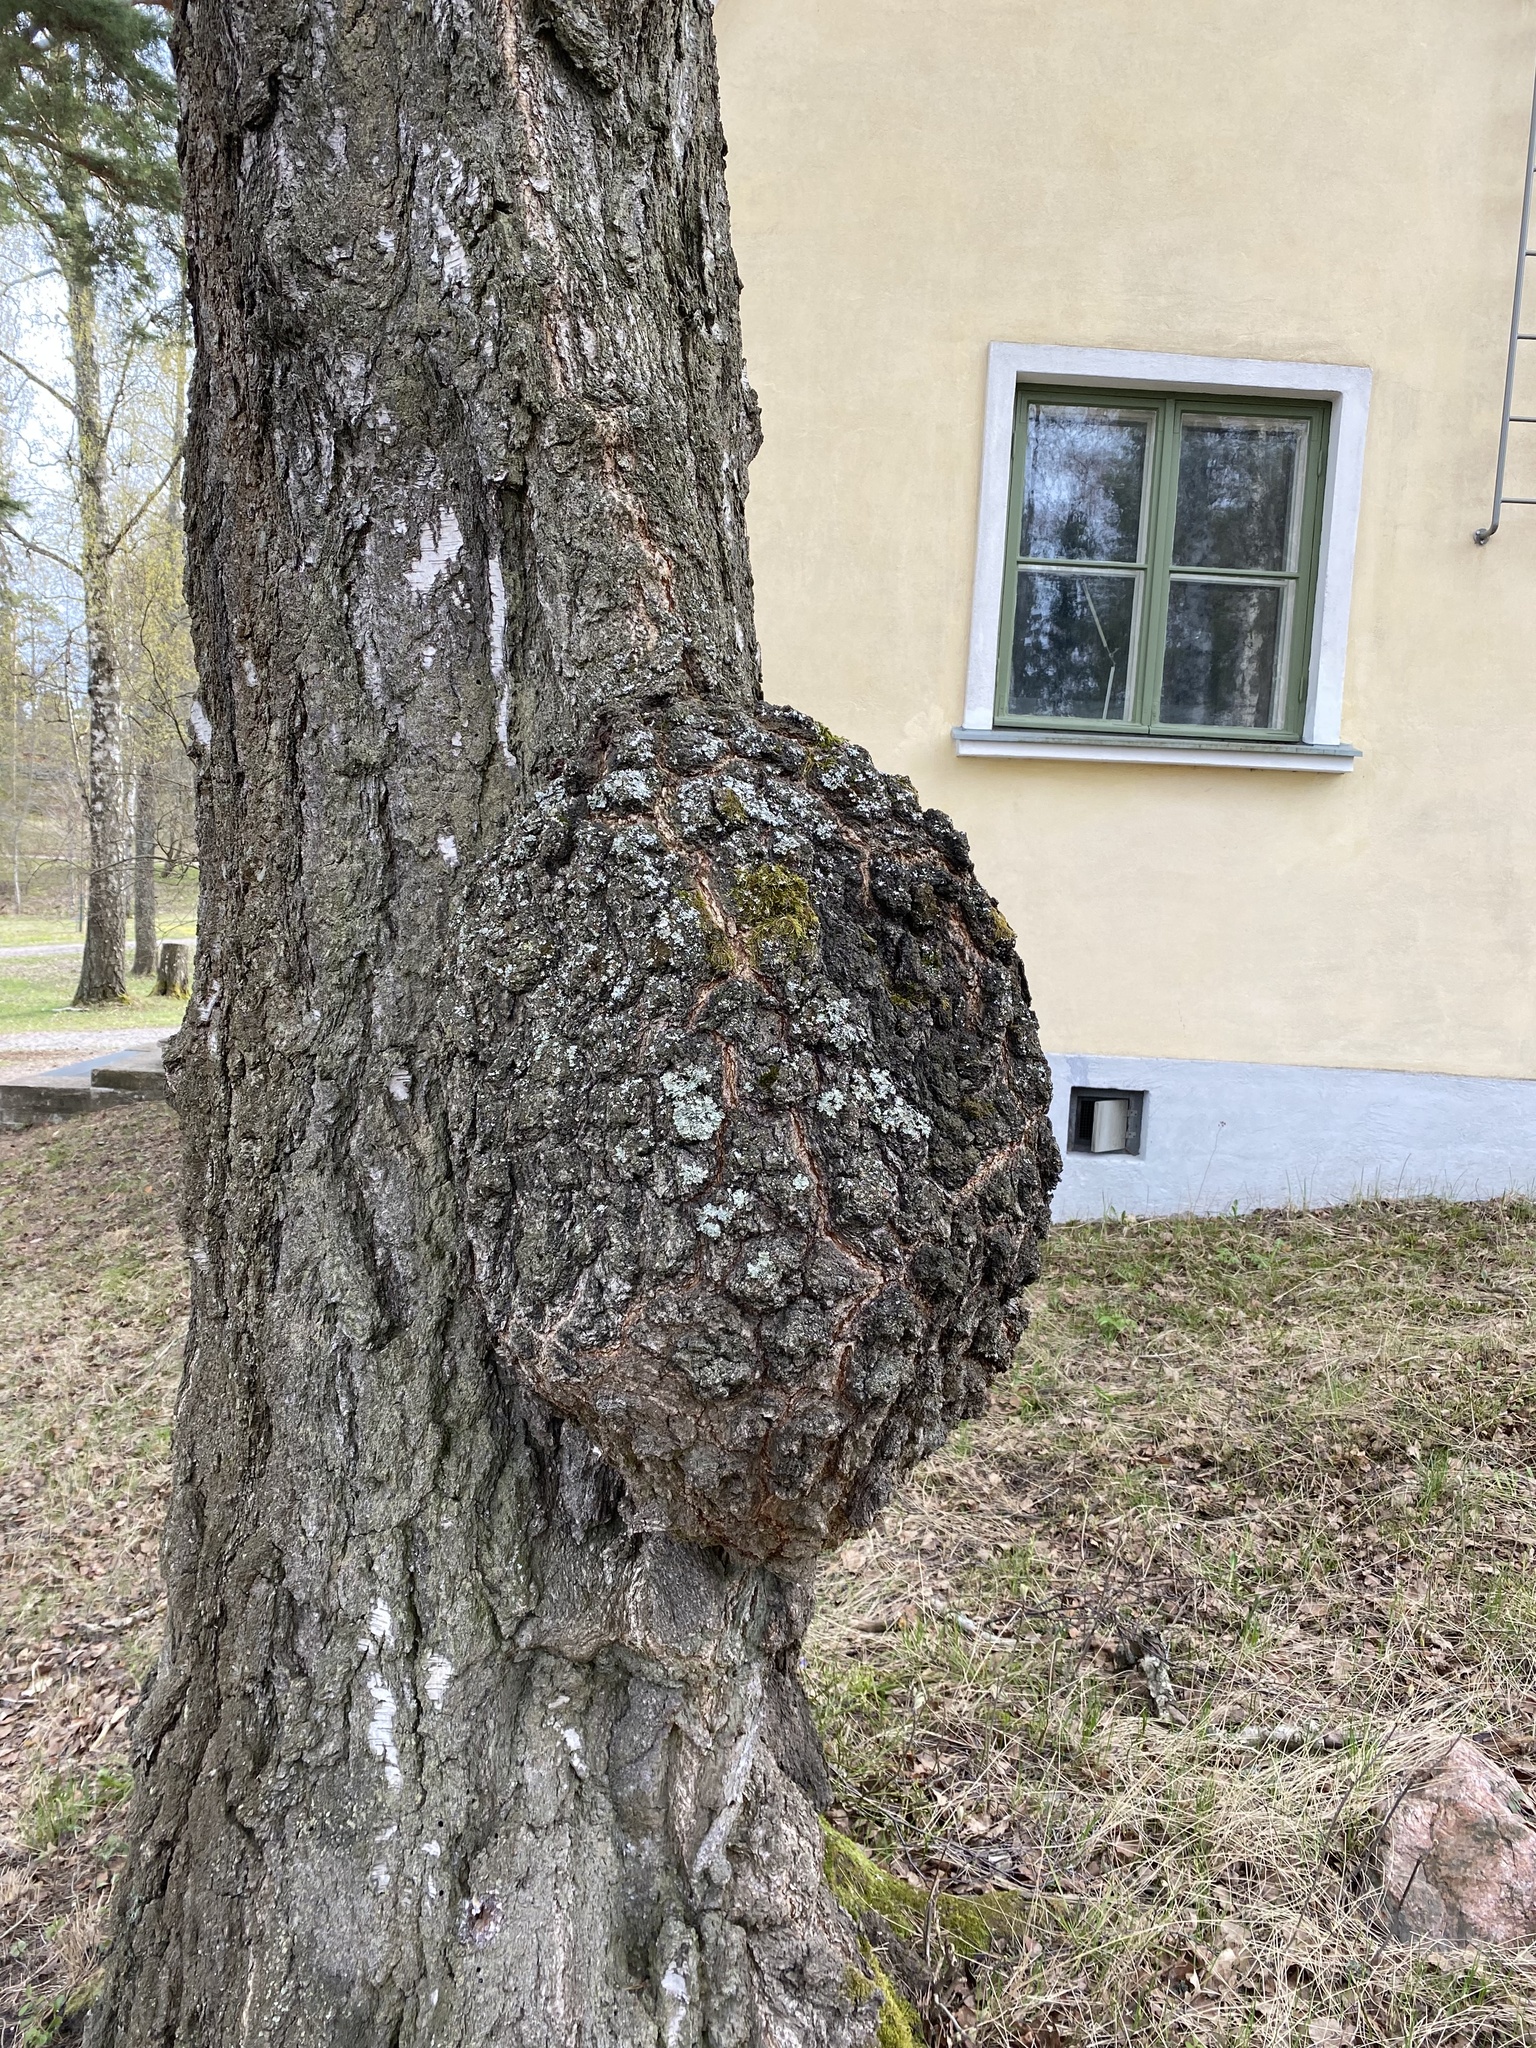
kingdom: Bacteria
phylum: Proteobacteria
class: Alphaproteobacteria
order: Rhizobiales
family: Rhizobiaceae
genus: Rhizobium
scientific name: Rhizobium Agrobacterium radiobacter
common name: Bacterial crown gall
